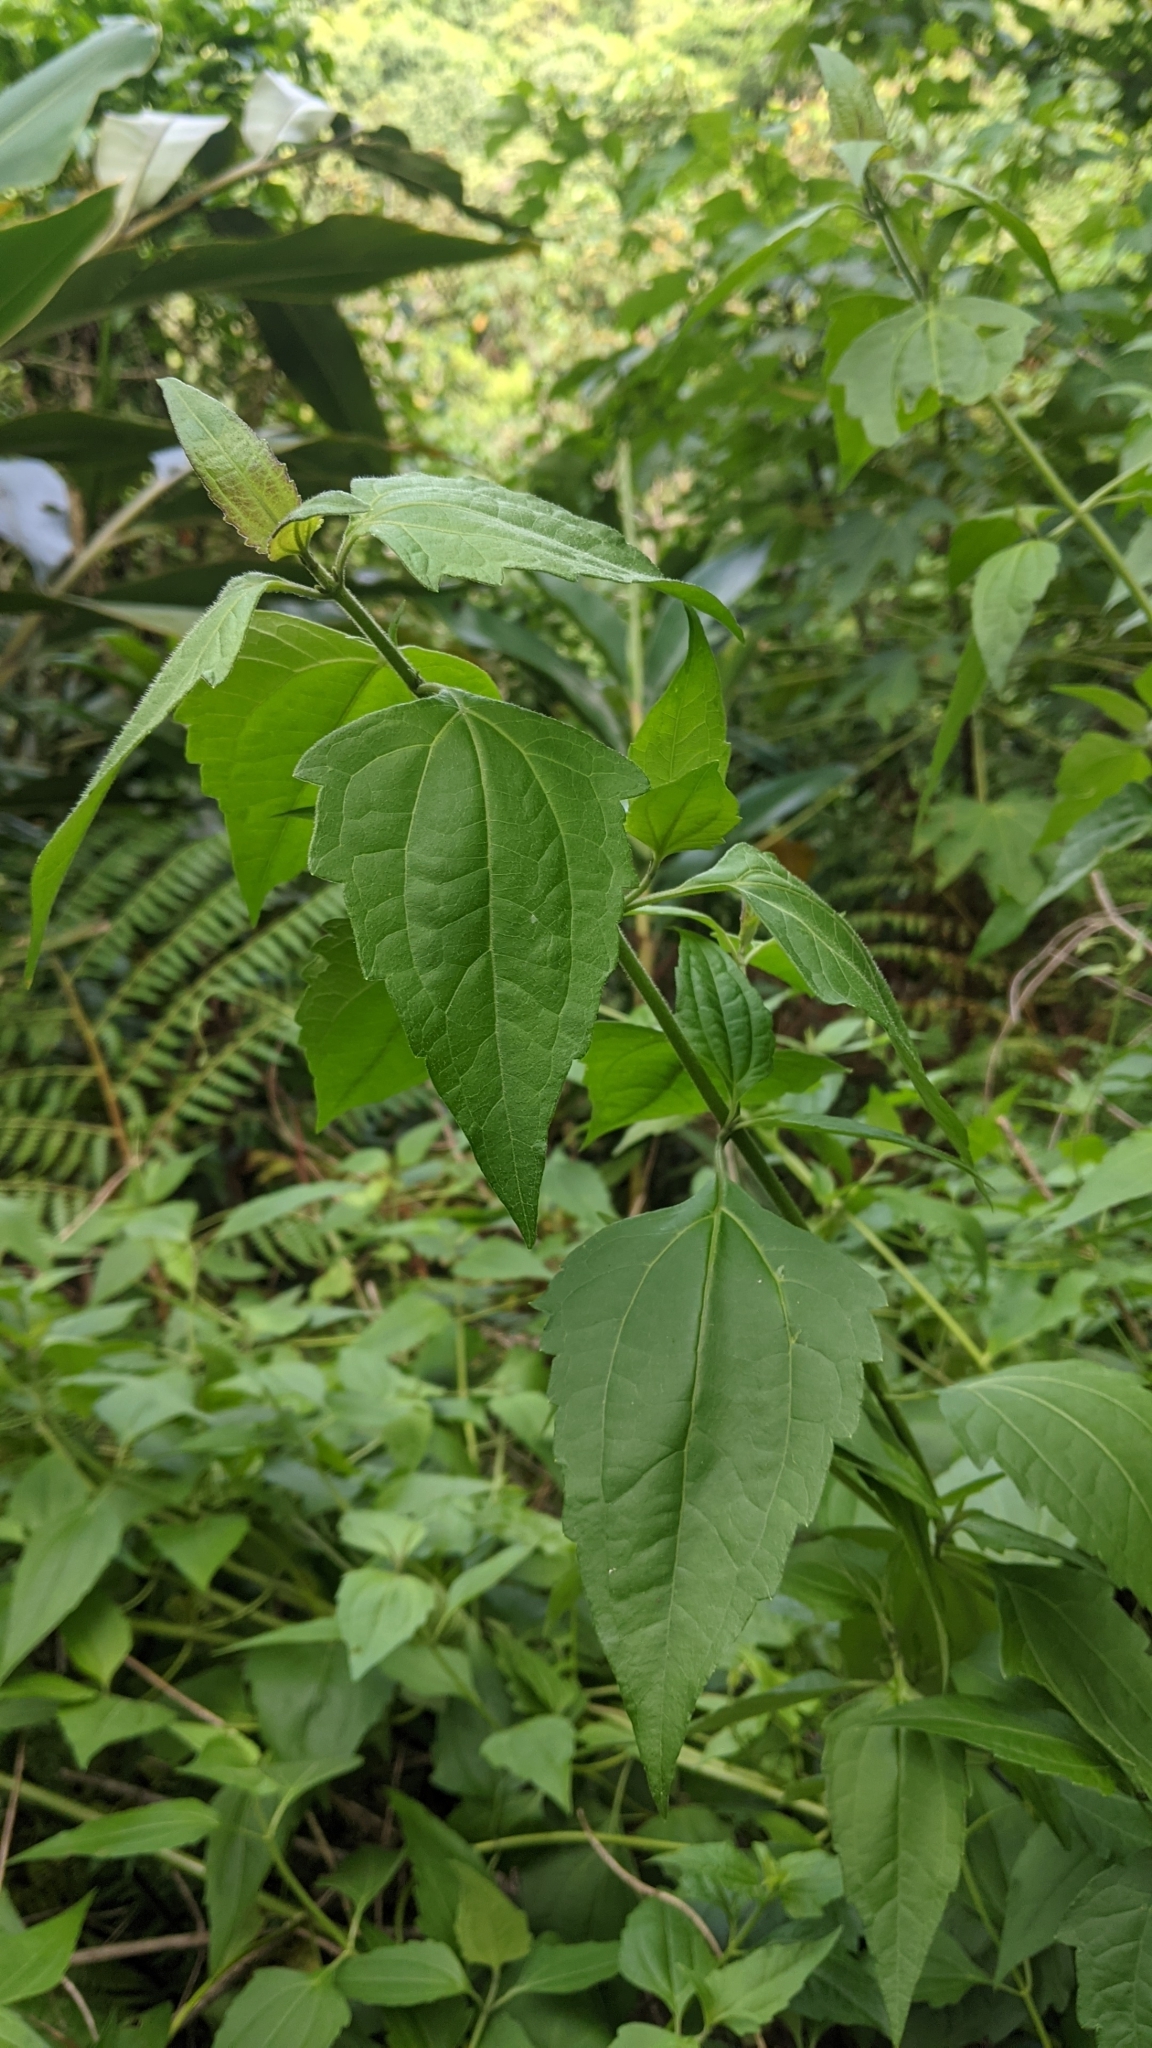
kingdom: Plantae
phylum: Tracheophyta
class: Magnoliopsida
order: Asterales
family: Asteraceae
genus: Chromolaena
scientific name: Chromolaena odorata
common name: Siamweed
